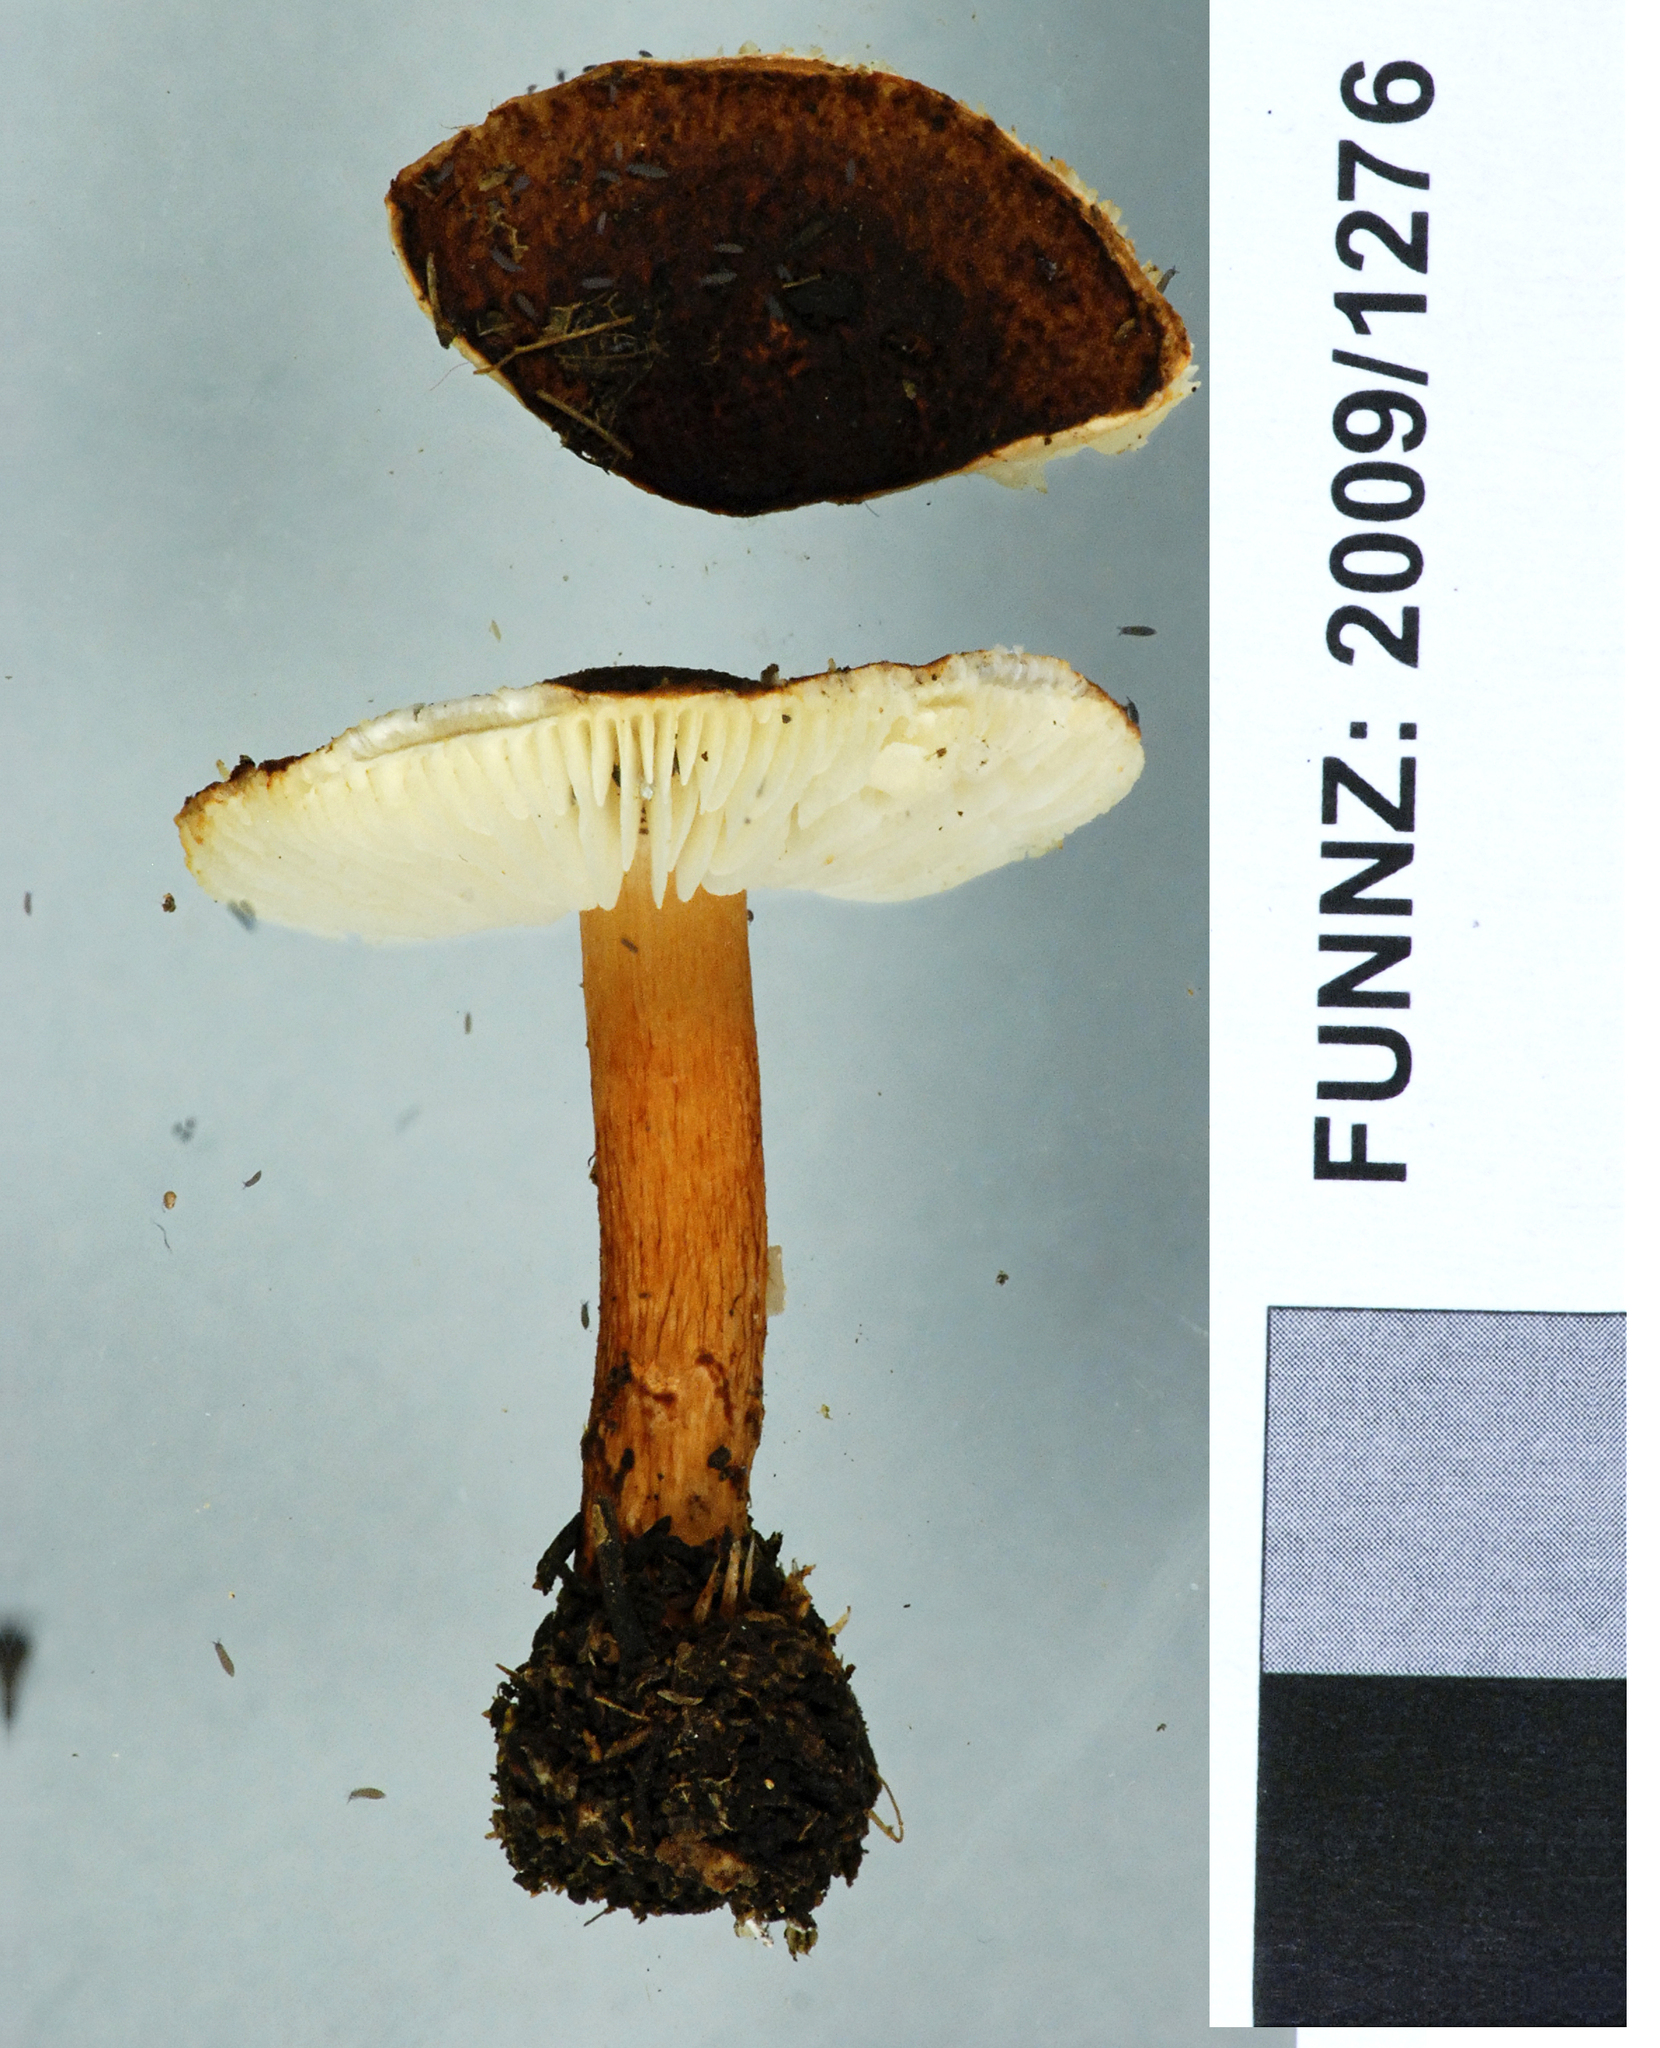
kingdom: Fungi
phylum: Basidiomycota
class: Agaricomycetes
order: Agaricales
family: Agaricaceae
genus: Lepiota
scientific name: Lepiota alopochroa
